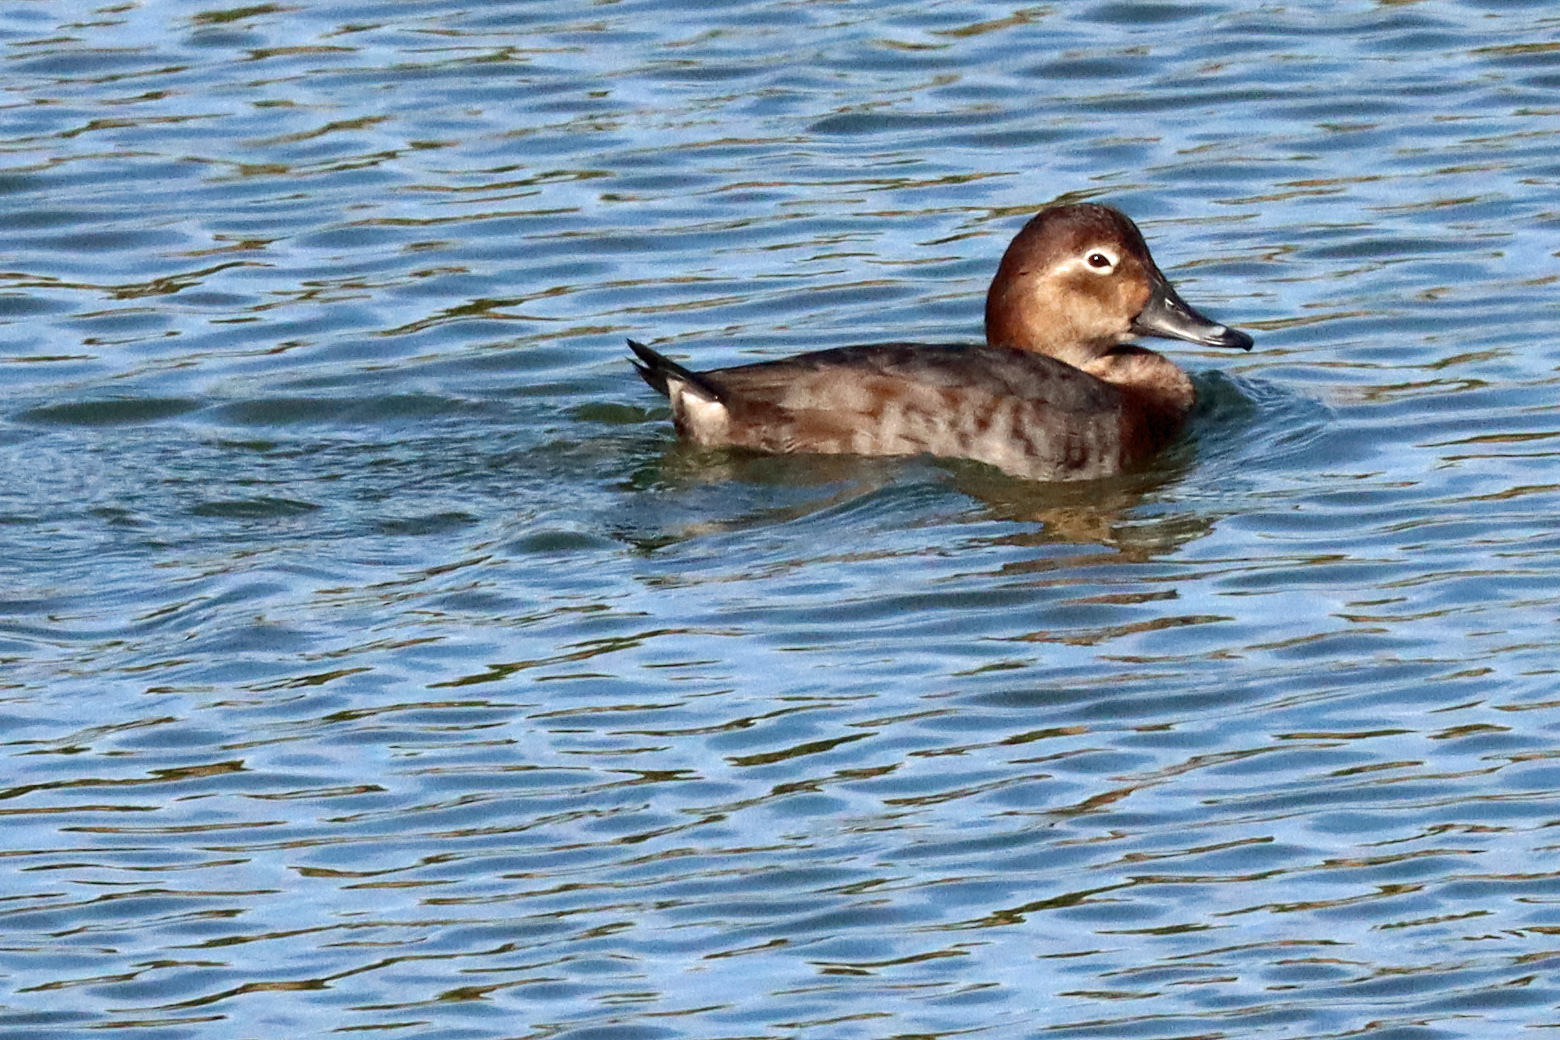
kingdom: Animalia
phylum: Chordata
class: Aves
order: Anseriformes
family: Anatidae
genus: Aythya
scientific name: Aythya ferina
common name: Common pochard
